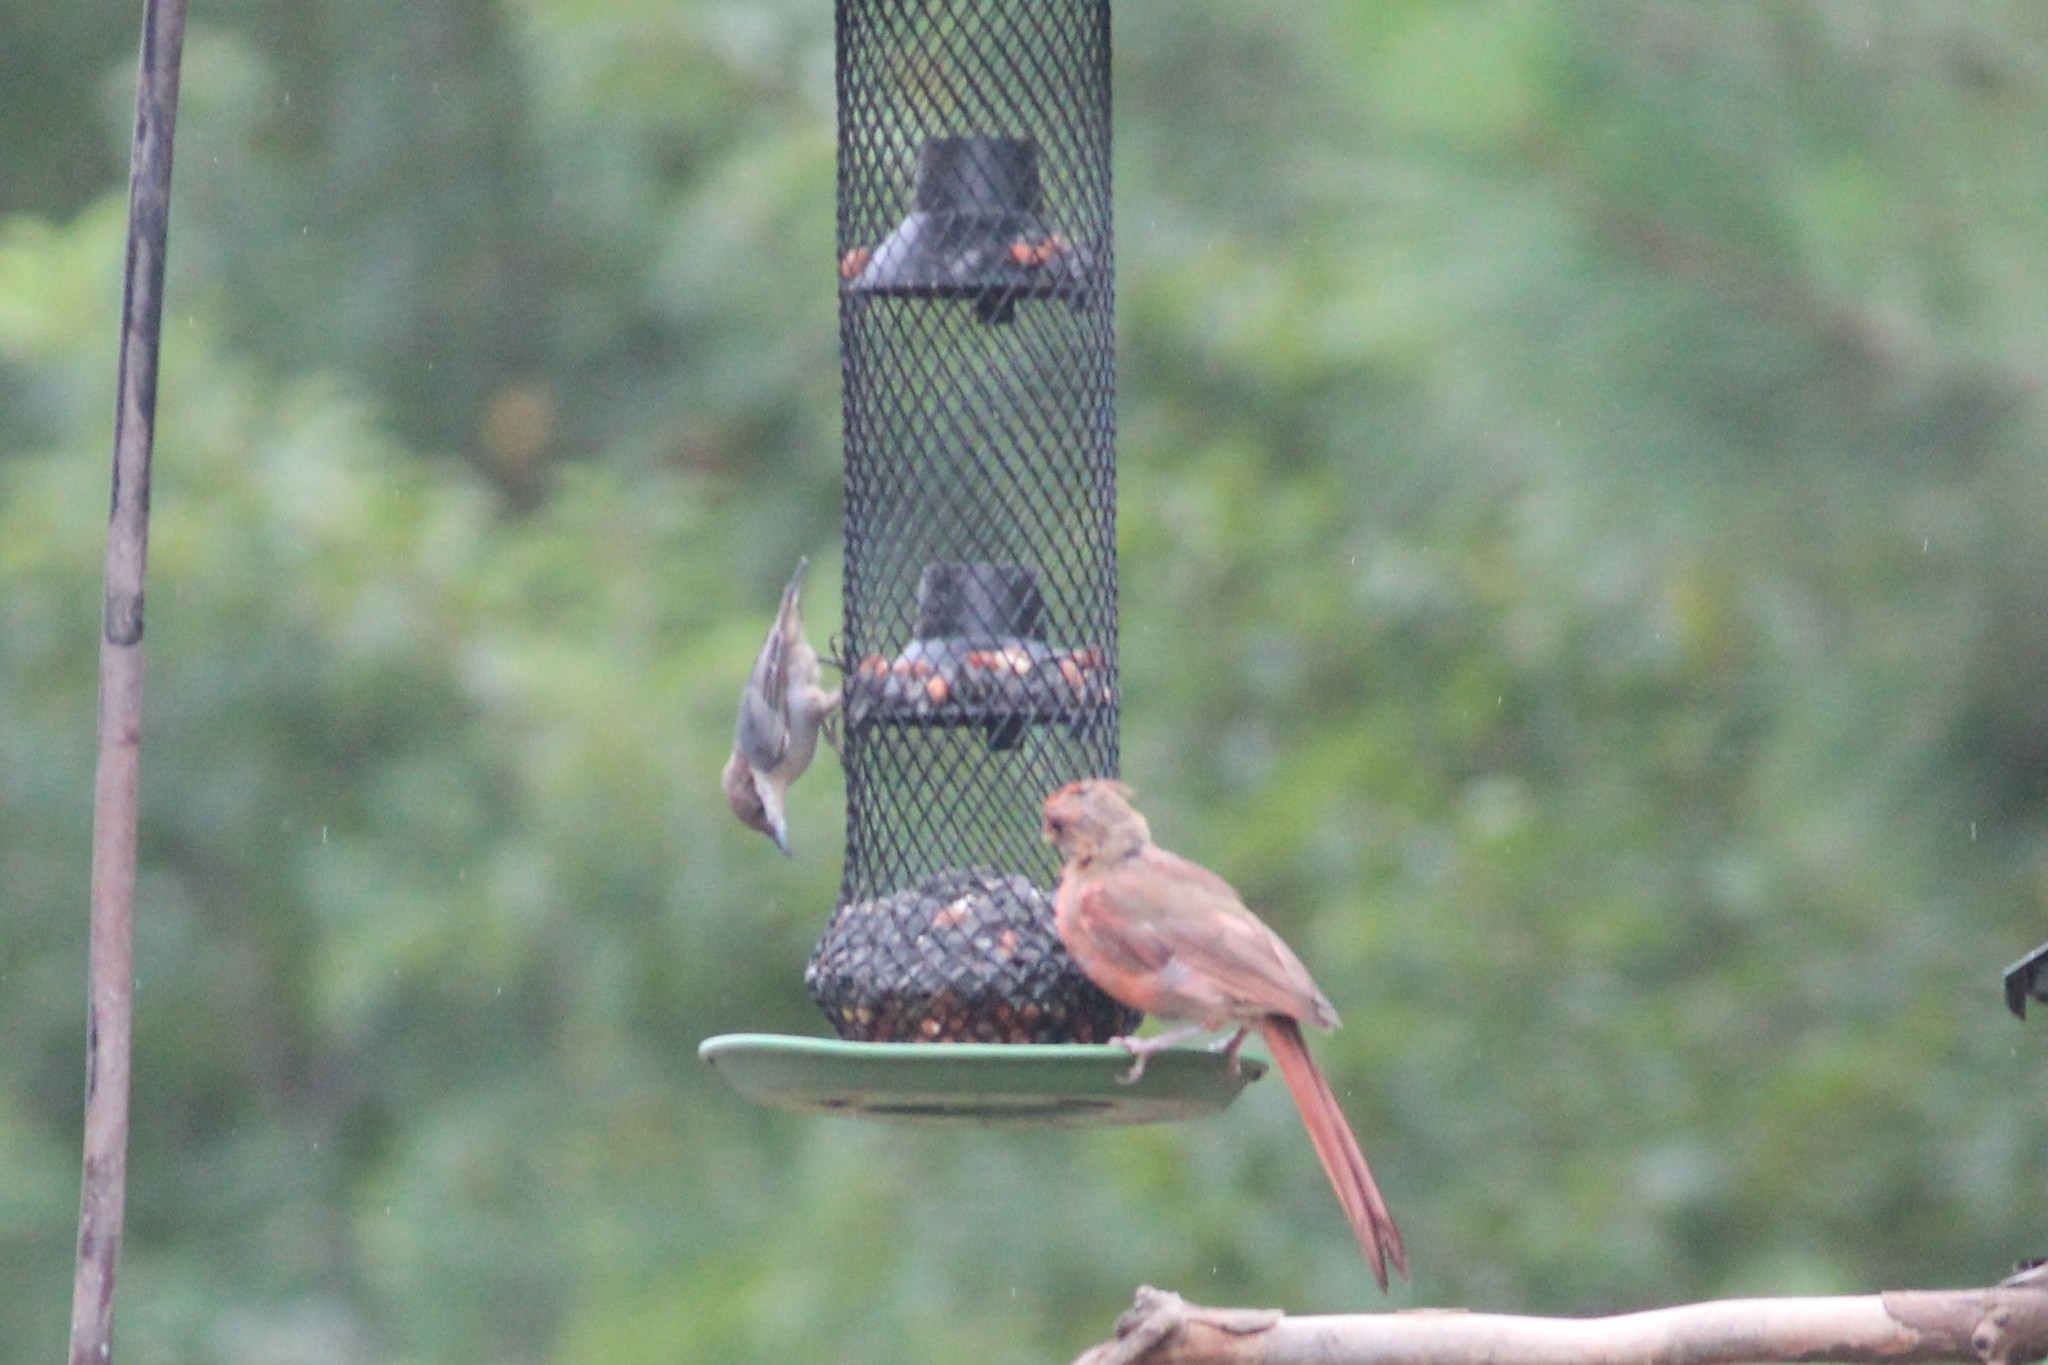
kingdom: Animalia
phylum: Chordata
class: Aves
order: Passeriformes
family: Sittidae
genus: Sitta
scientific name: Sitta pusilla
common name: Brown-headed nuthatch
